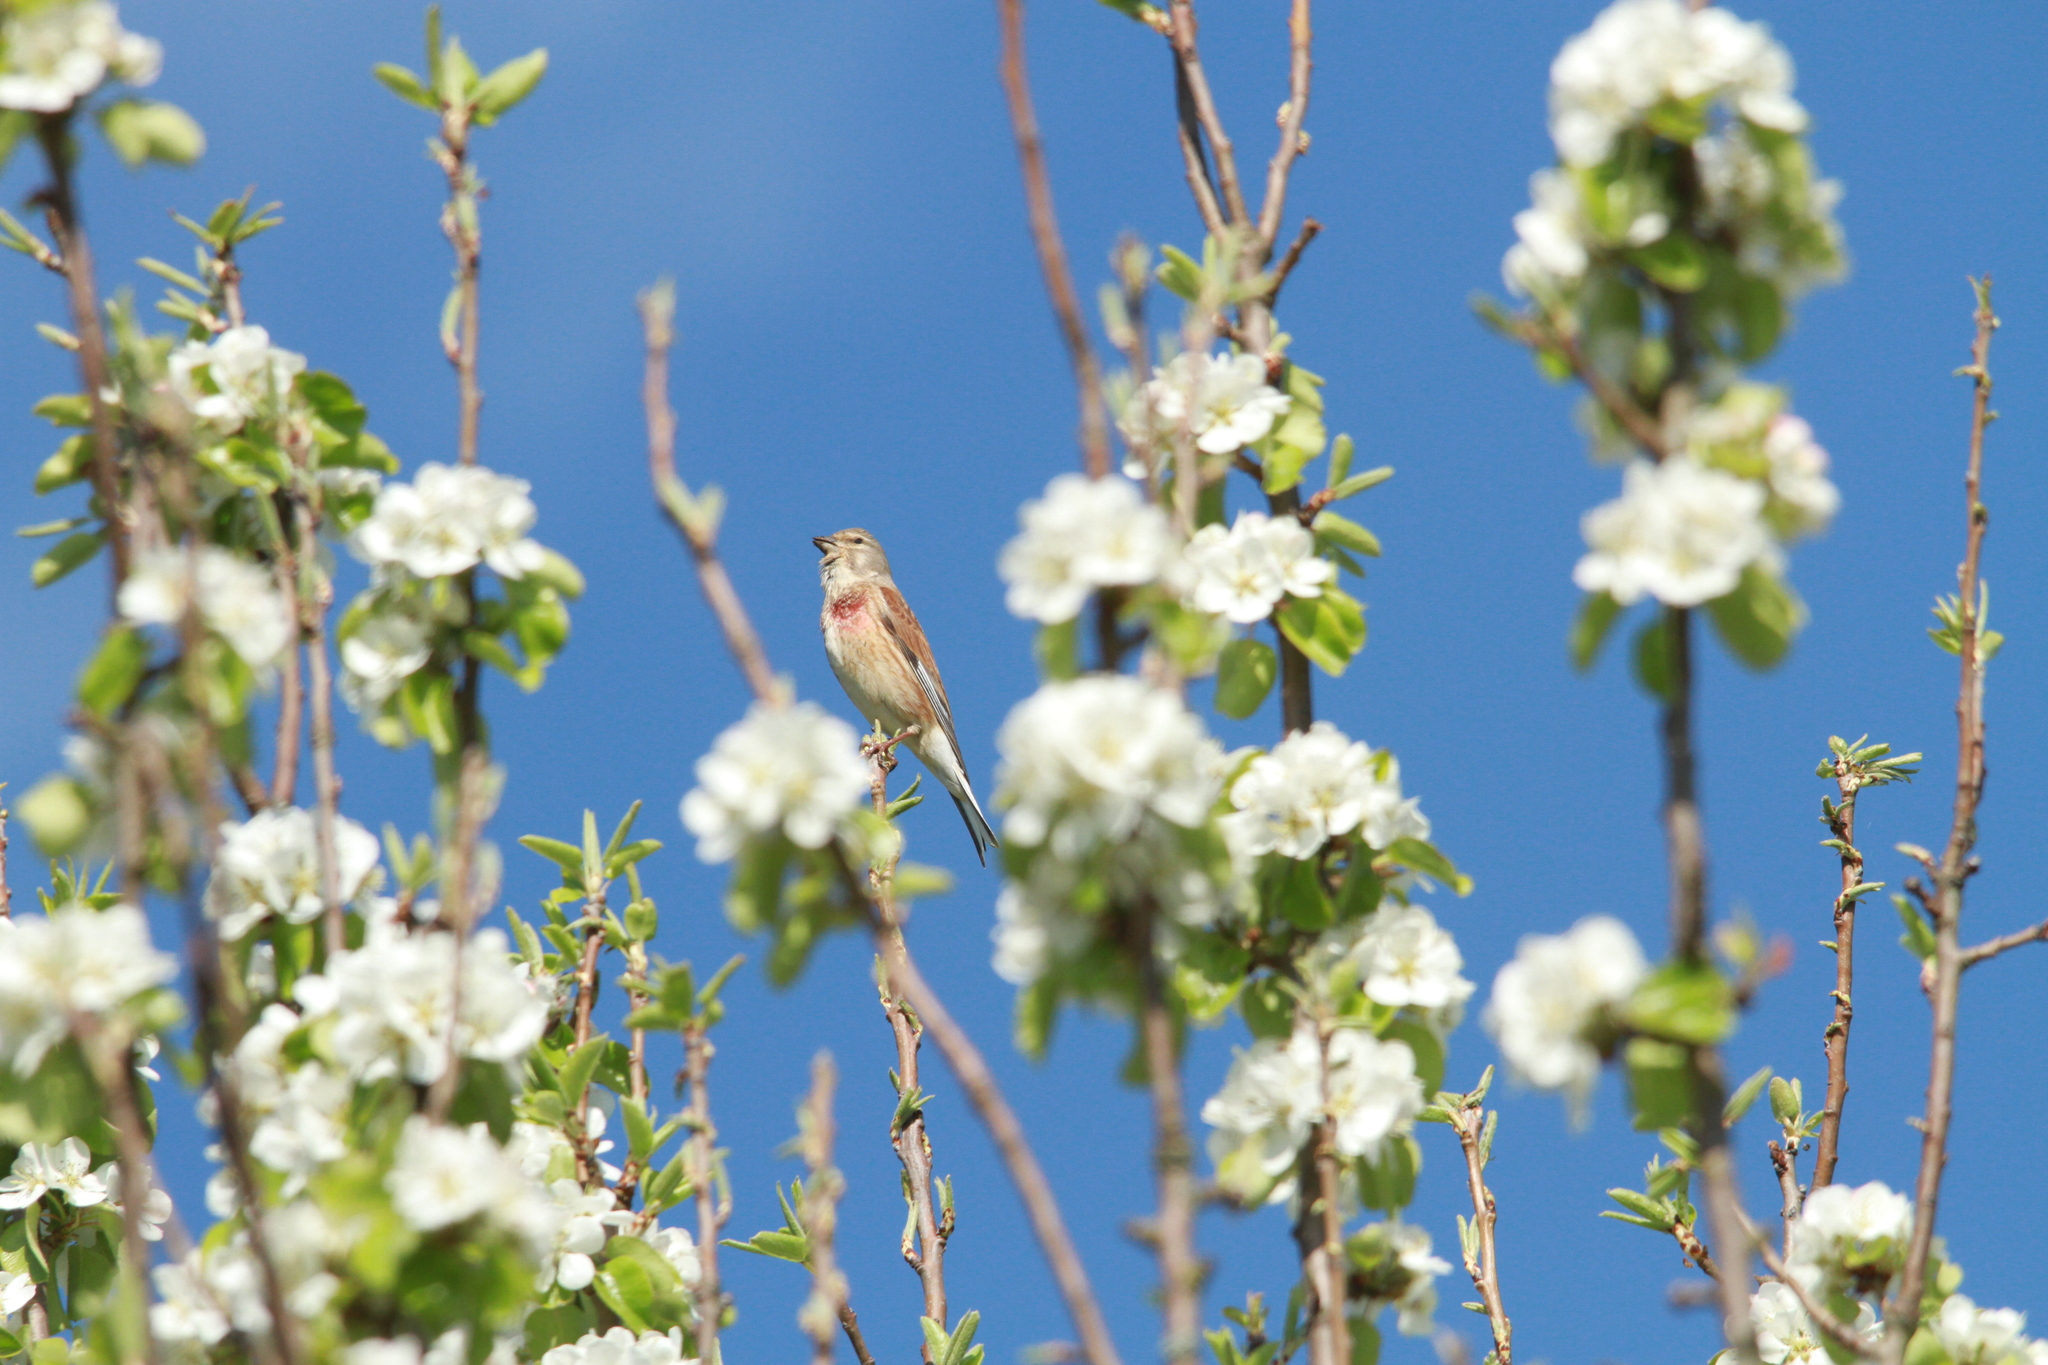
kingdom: Animalia
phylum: Chordata
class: Aves
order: Passeriformes
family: Fringillidae
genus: Linaria
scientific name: Linaria cannabina
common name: Common linnet
